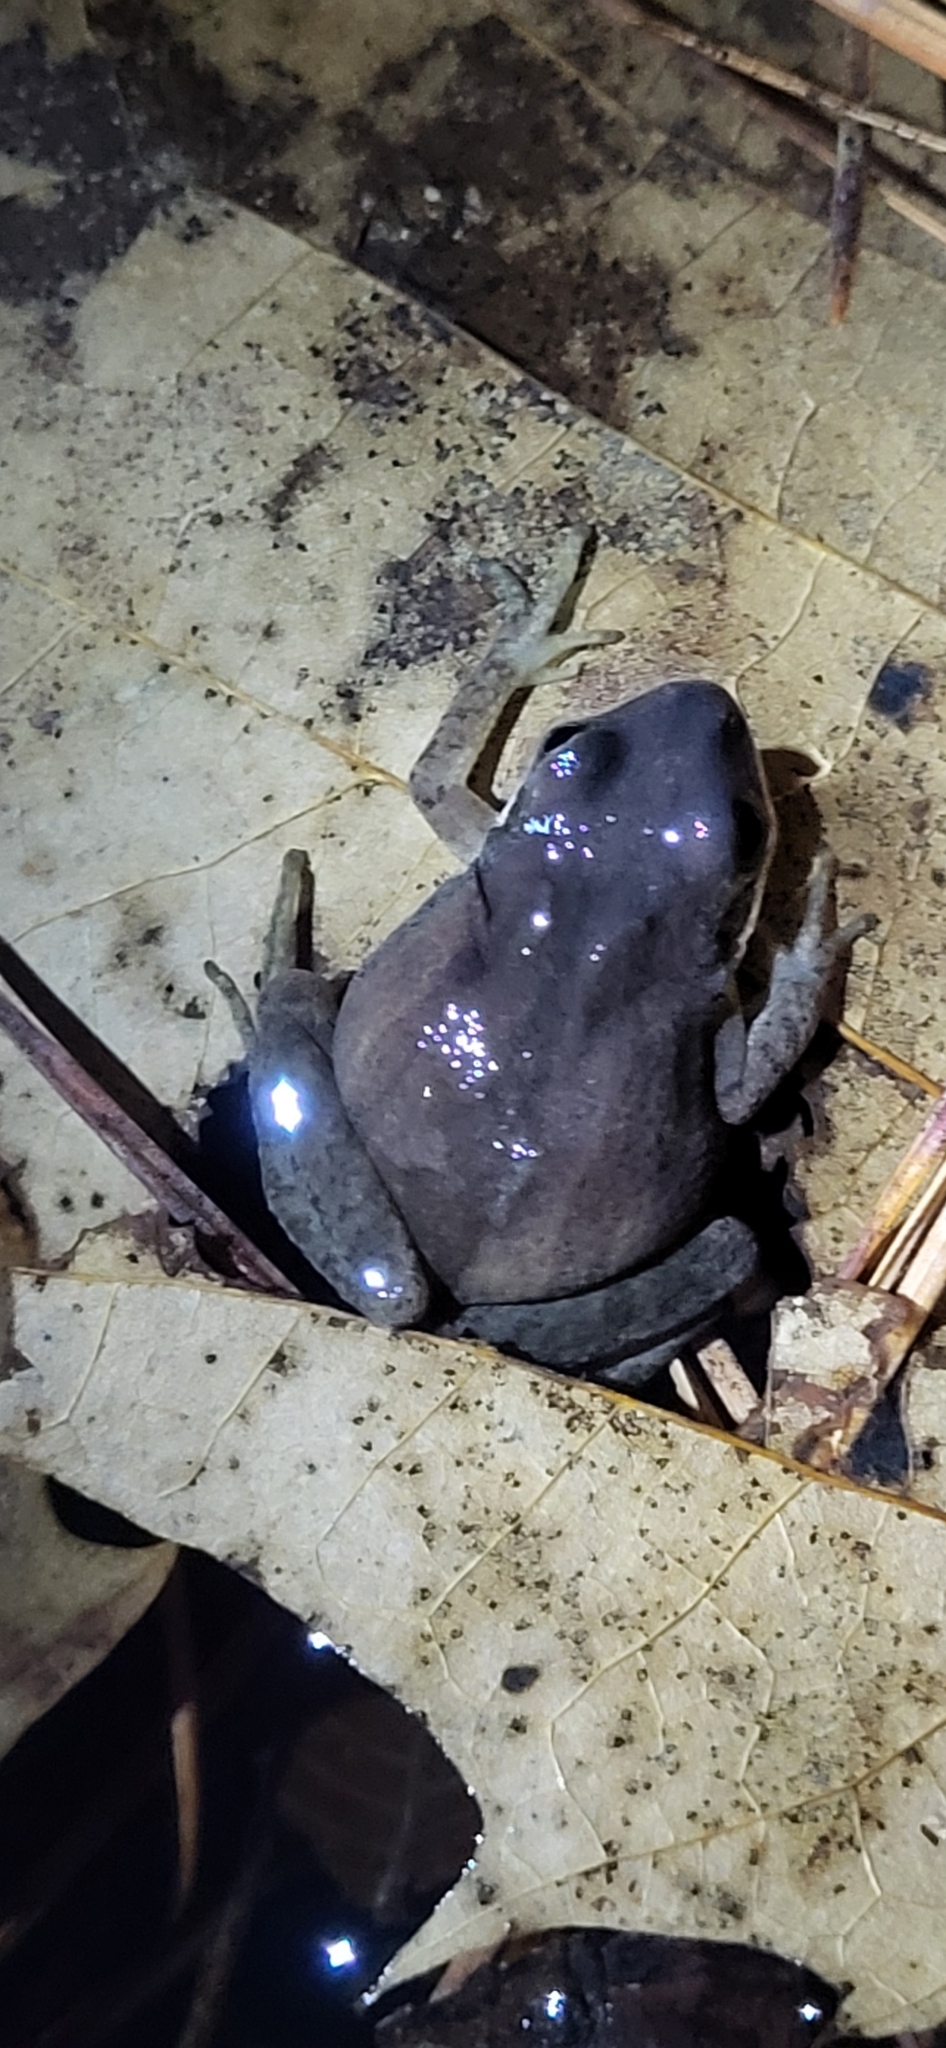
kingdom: Animalia
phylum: Chordata
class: Amphibia
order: Anura
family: Hylidae
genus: Pseudacris
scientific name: Pseudacris feriarum
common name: Upland chorus frog
